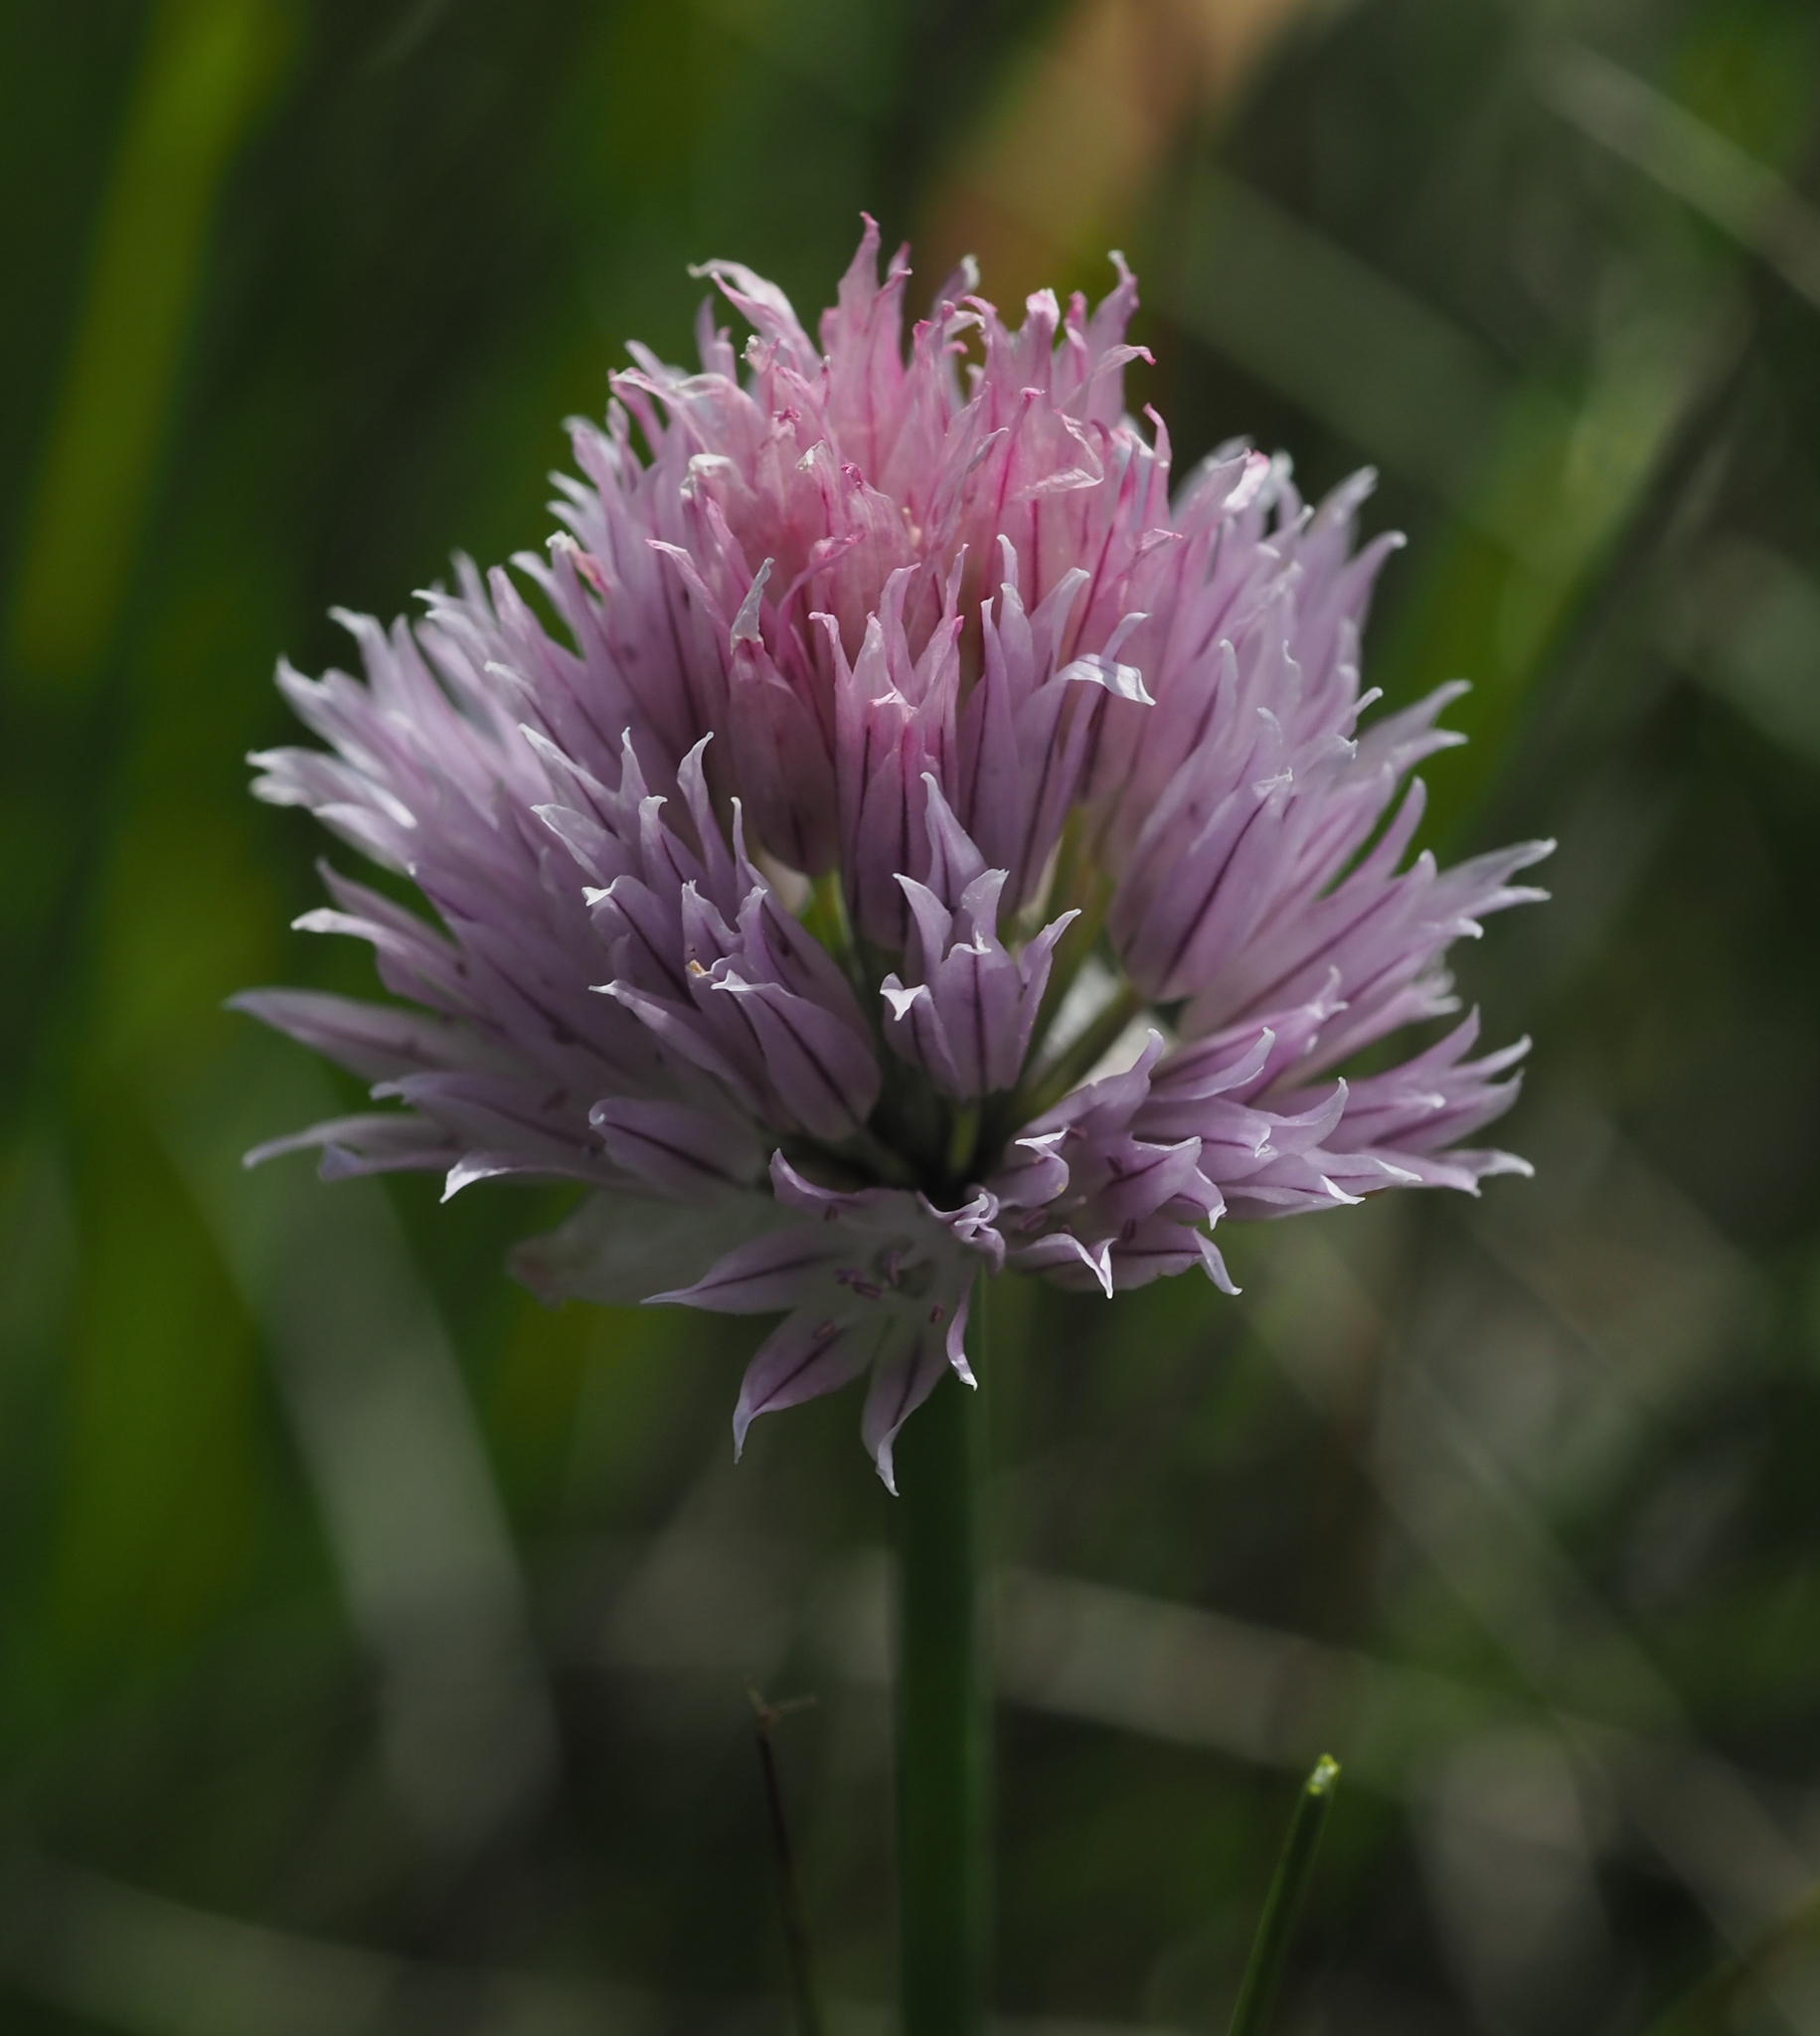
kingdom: Plantae
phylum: Tracheophyta
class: Liliopsida
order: Asparagales
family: Amaryllidaceae
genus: Allium
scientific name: Allium schoenoprasum
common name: Chives
